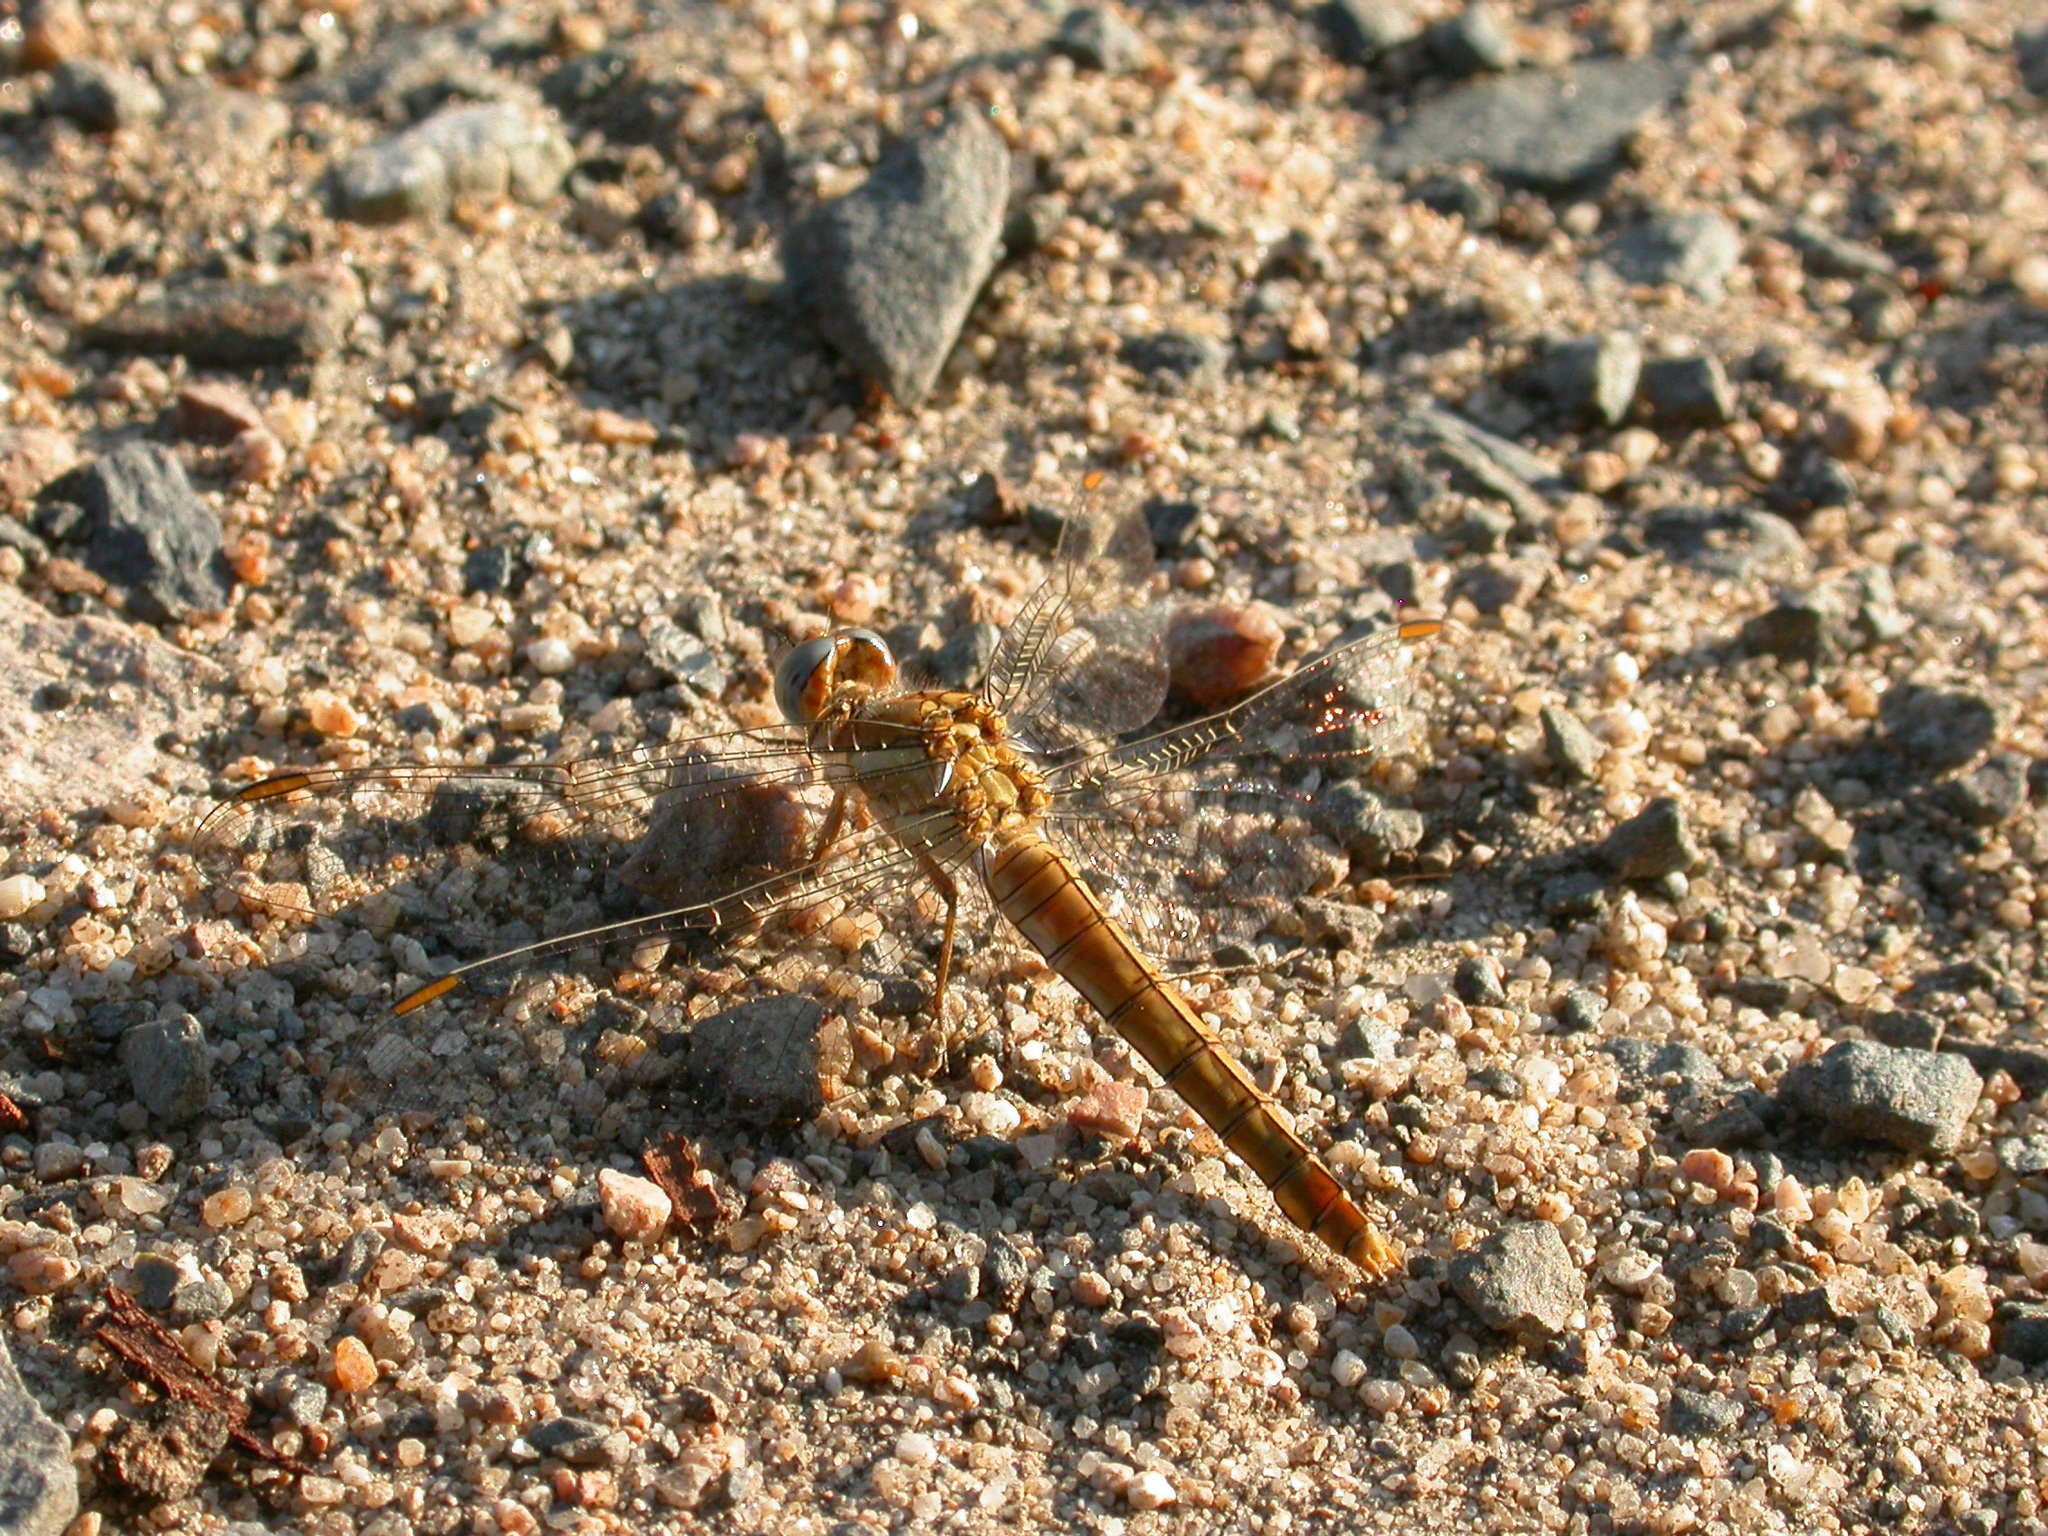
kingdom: Animalia
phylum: Arthropoda
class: Insecta
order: Odonata
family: Libellulidae
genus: Orthetrum
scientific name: Orthetrum brunneum
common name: Southern skimmer
